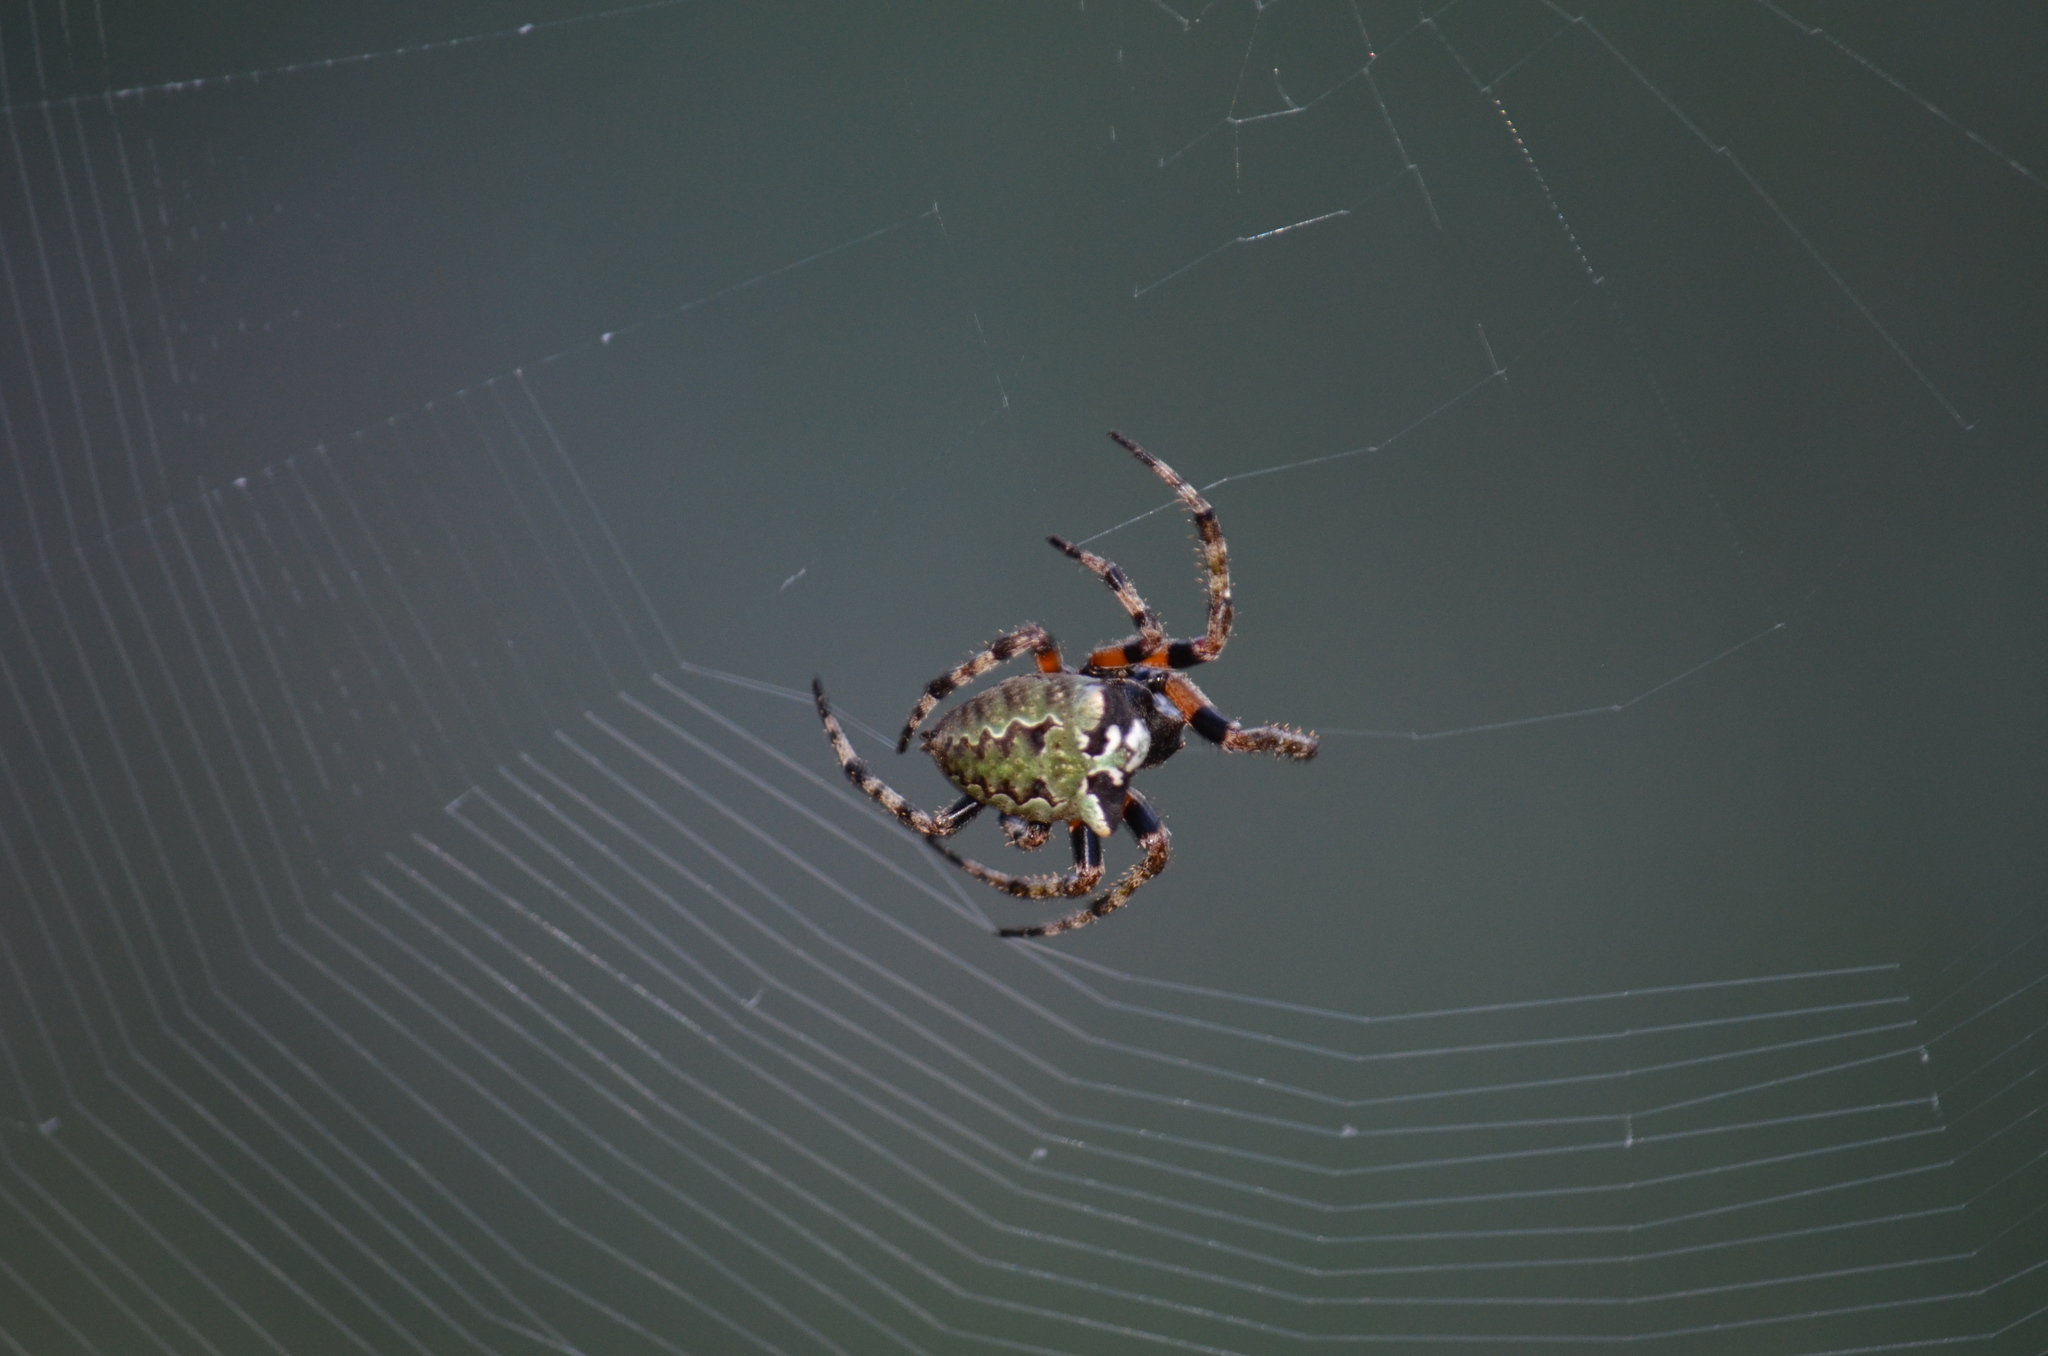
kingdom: Animalia
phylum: Arthropoda
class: Arachnida
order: Araneae
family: Araneidae
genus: Araneus
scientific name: Araneus bicentenarius
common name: Giant lichen orbweaver
